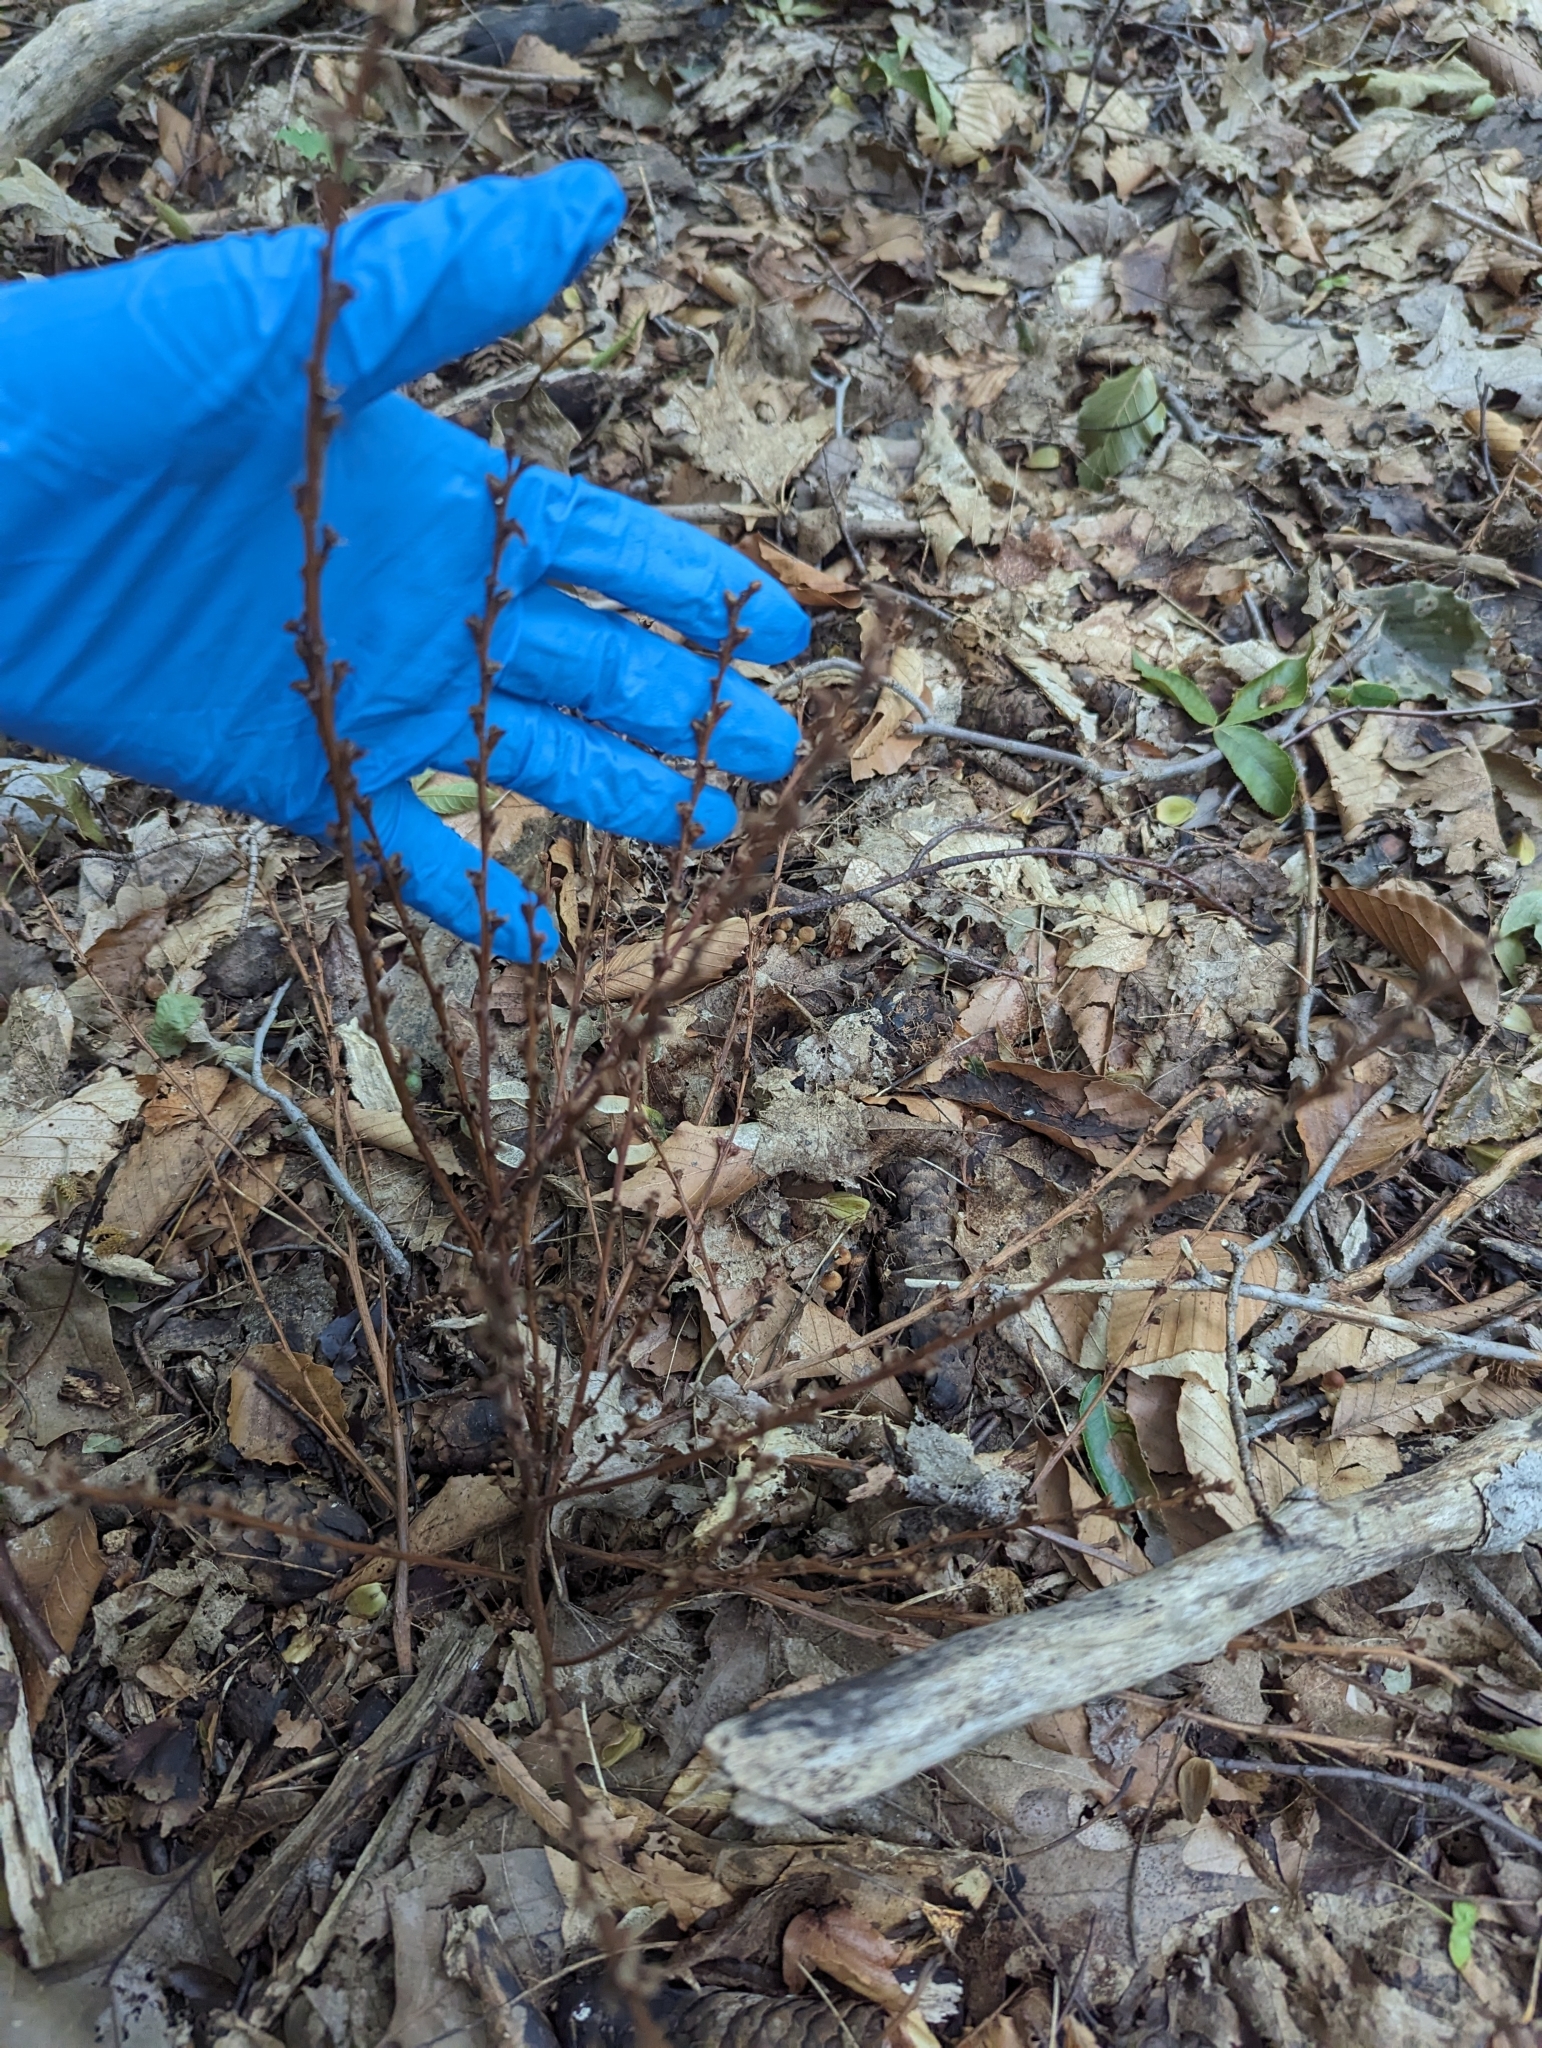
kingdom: Plantae
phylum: Tracheophyta
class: Magnoliopsida
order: Lamiales
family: Orobanchaceae
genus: Epifagus
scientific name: Epifagus virginiana
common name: Beechdrops
